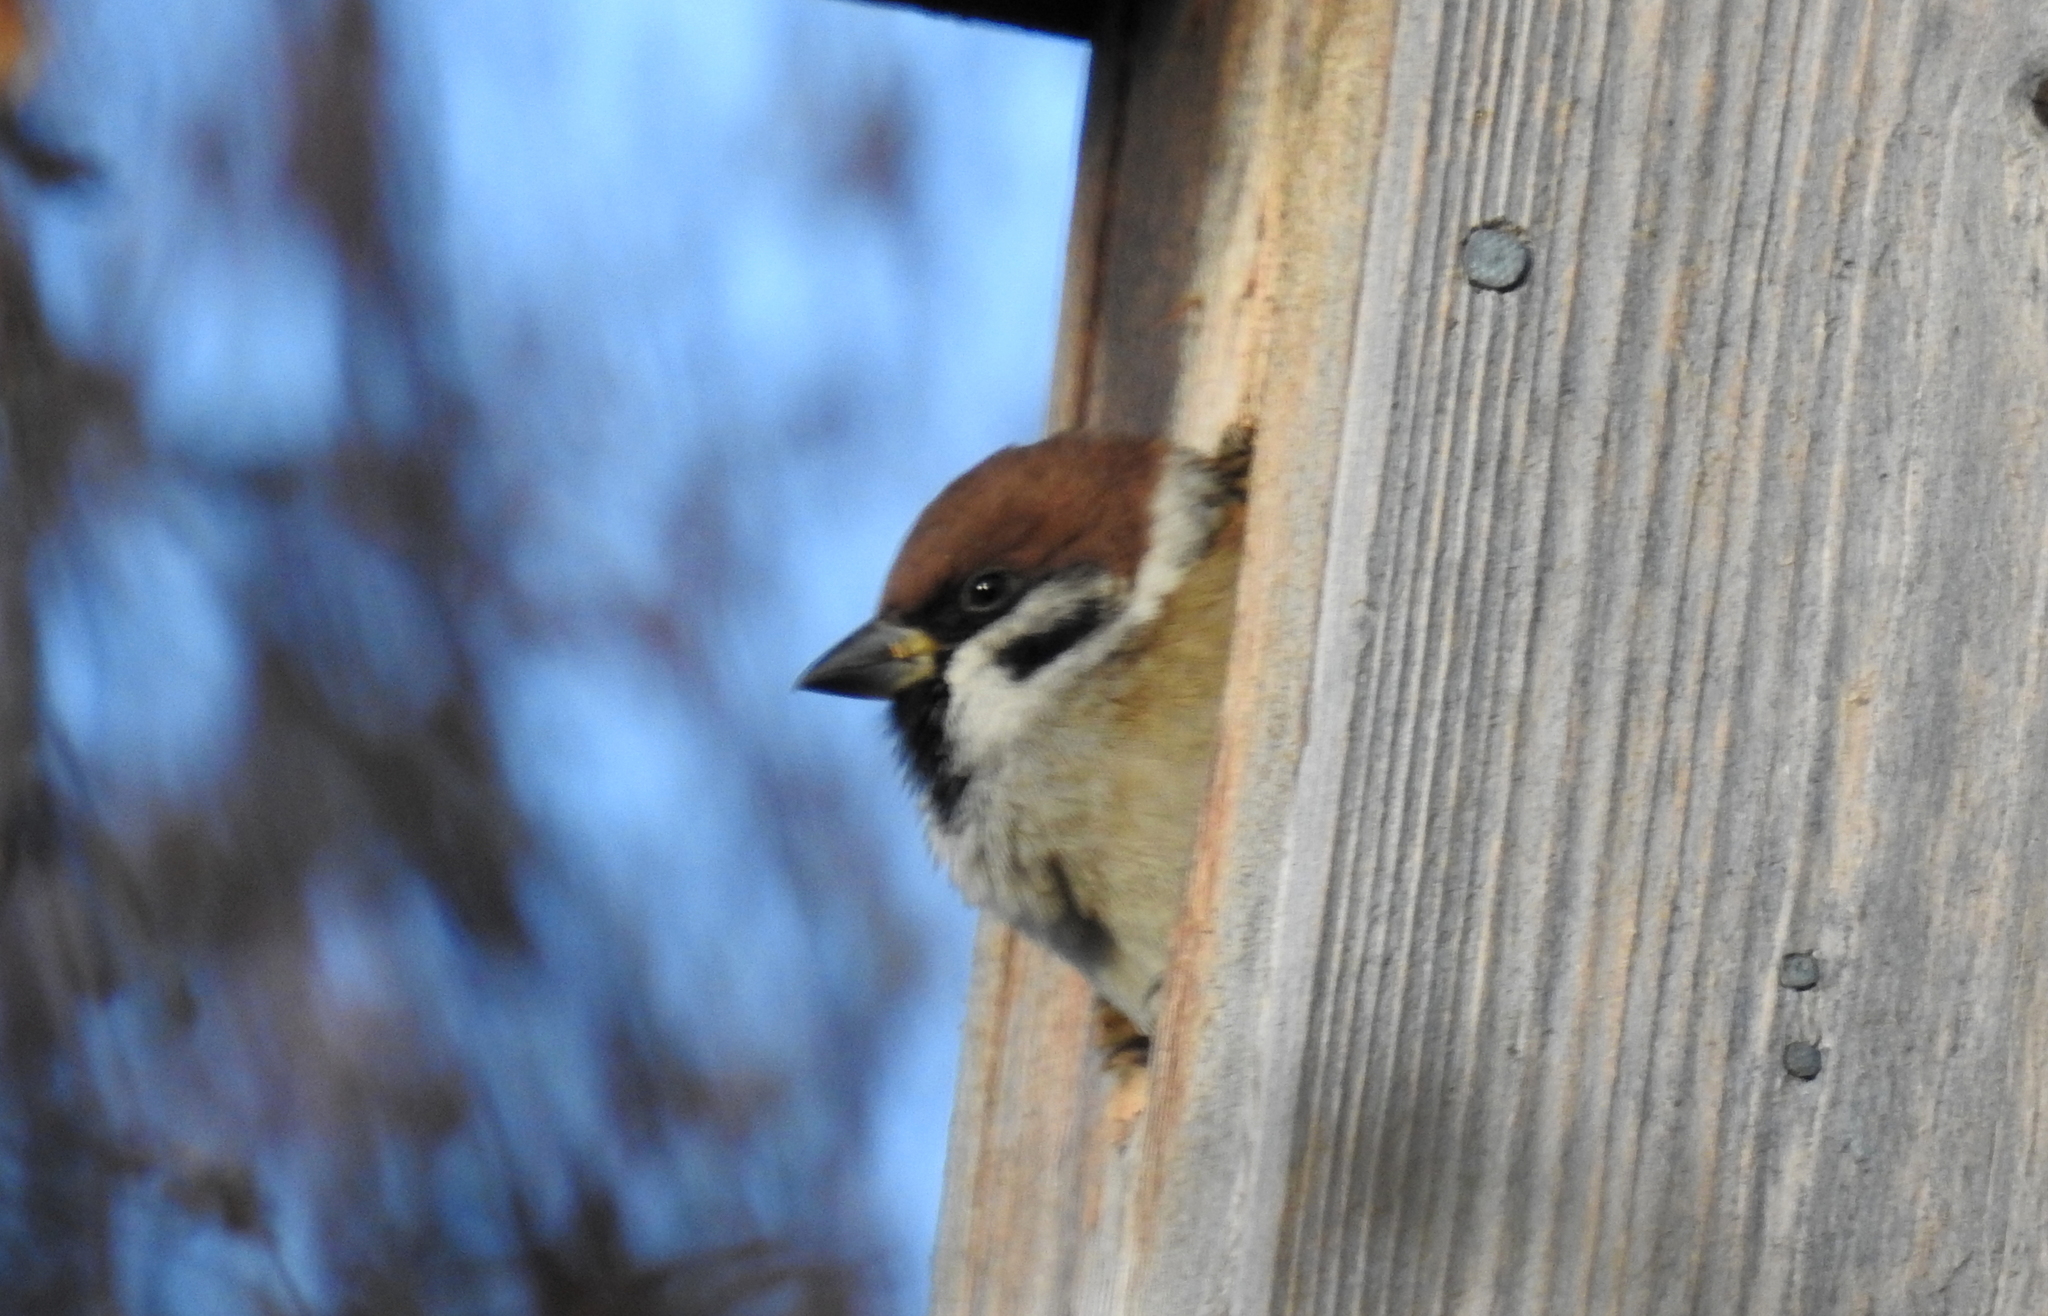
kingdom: Animalia
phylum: Chordata
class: Aves
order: Passeriformes
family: Passeridae
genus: Passer
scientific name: Passer montanus
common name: Eurasian tree sparrow
